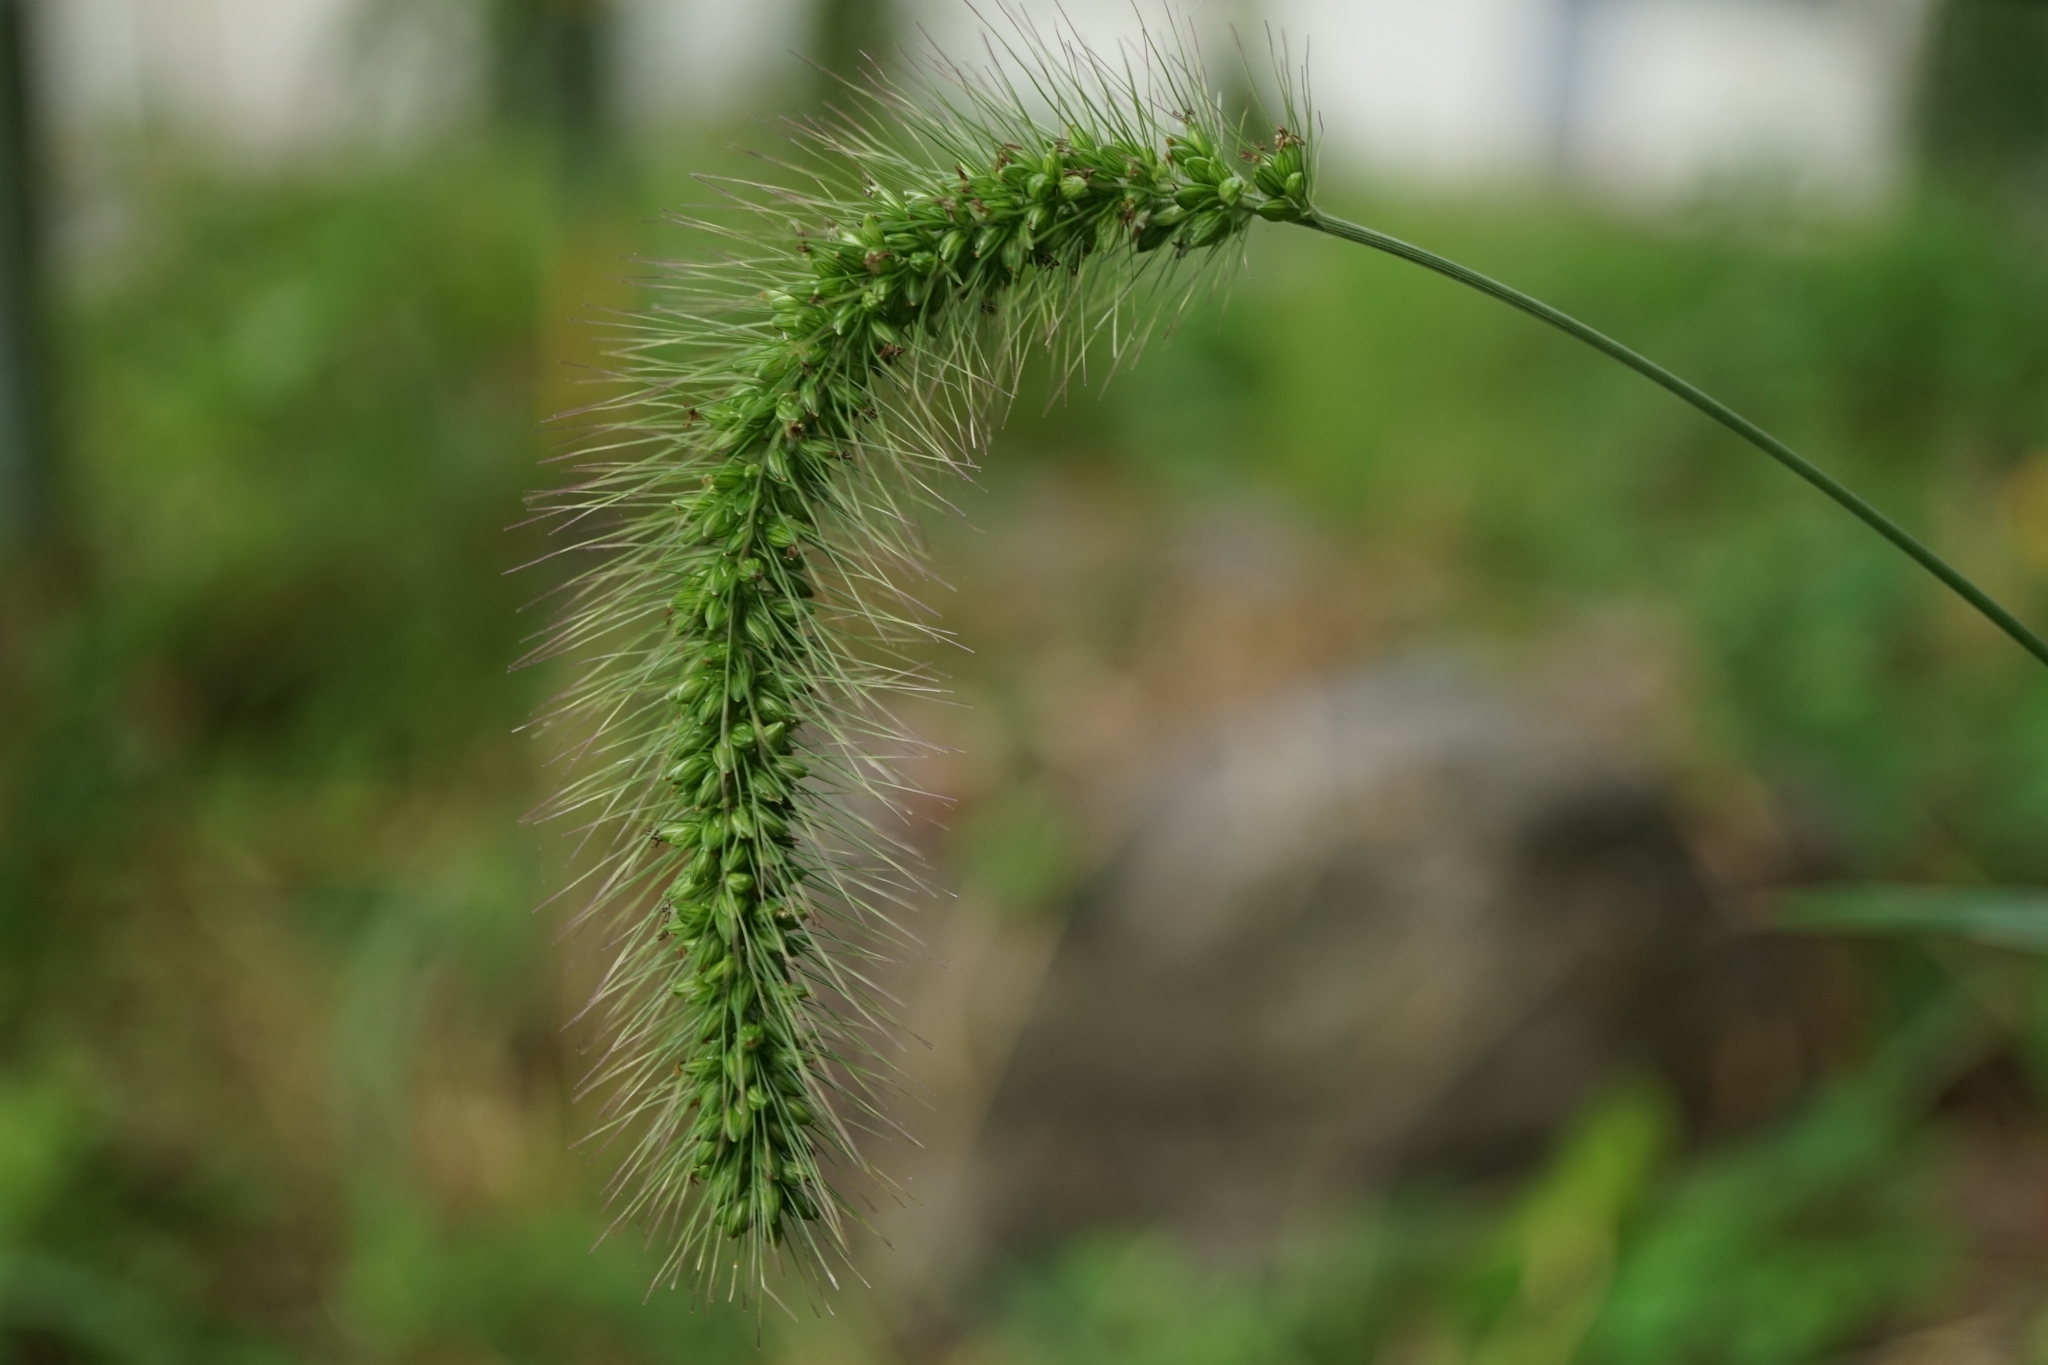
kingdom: Plantae
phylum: Tracheophyta
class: Liliopsida
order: Poales
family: Poaceae
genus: Setaria
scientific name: Setaria faberi
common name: Nodding bristle-grass
